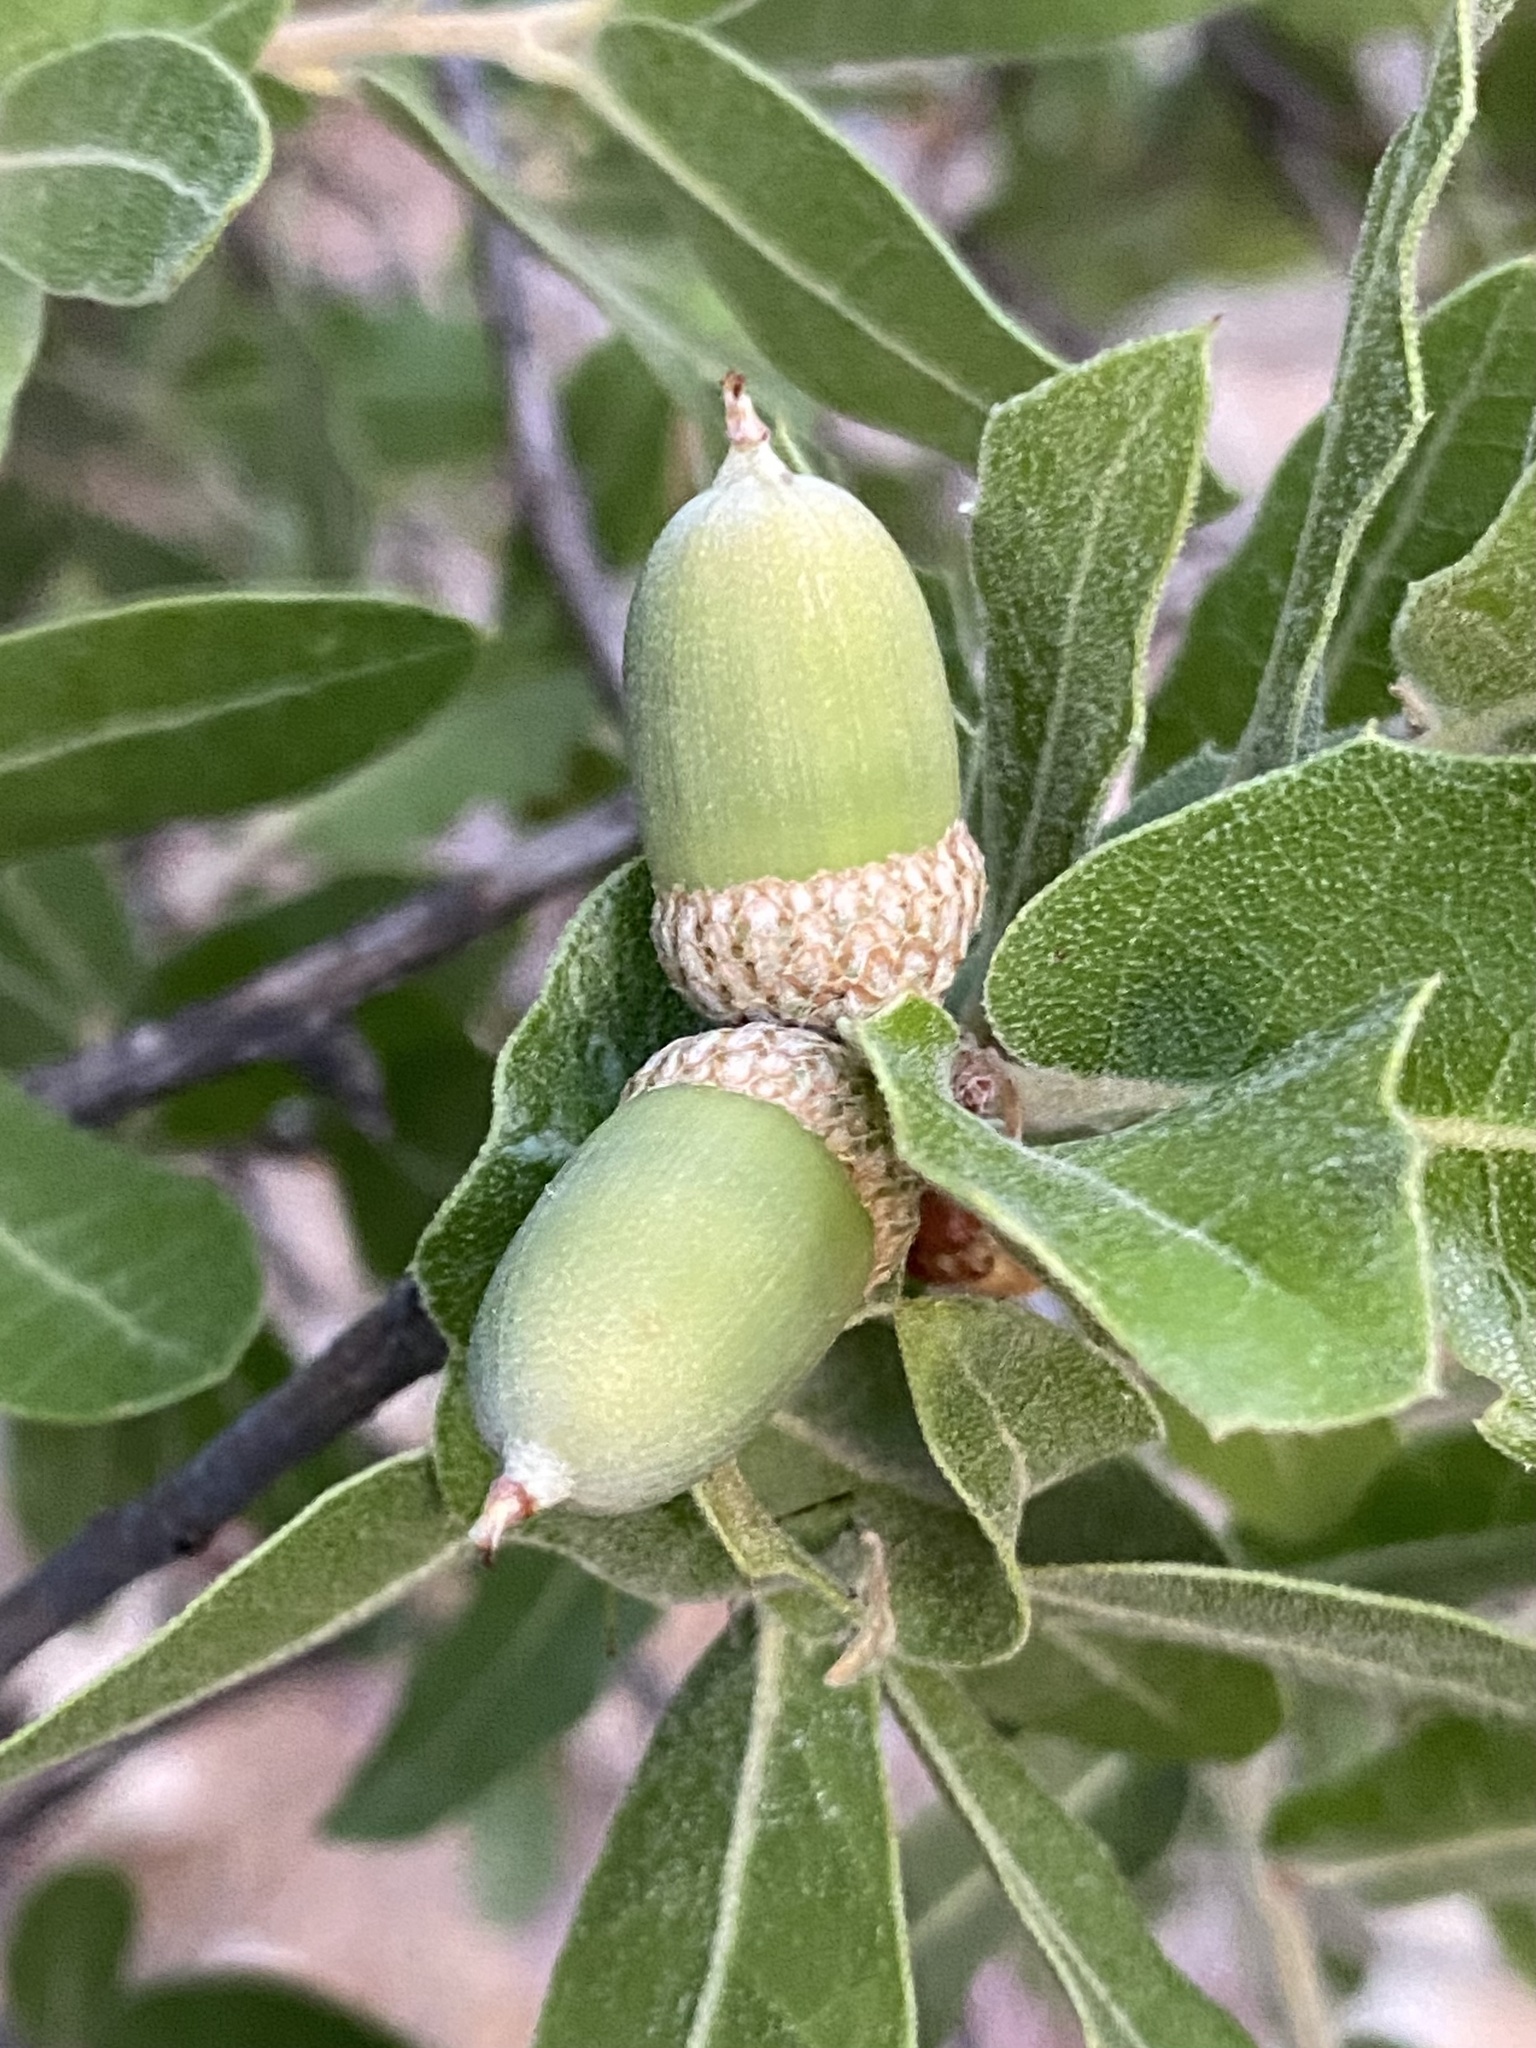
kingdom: Plantae
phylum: Tracheophyta
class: Magnoliopsida
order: Fagales
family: Fagaceae
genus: Quercus
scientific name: Quercus emoryi
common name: Emory oak
